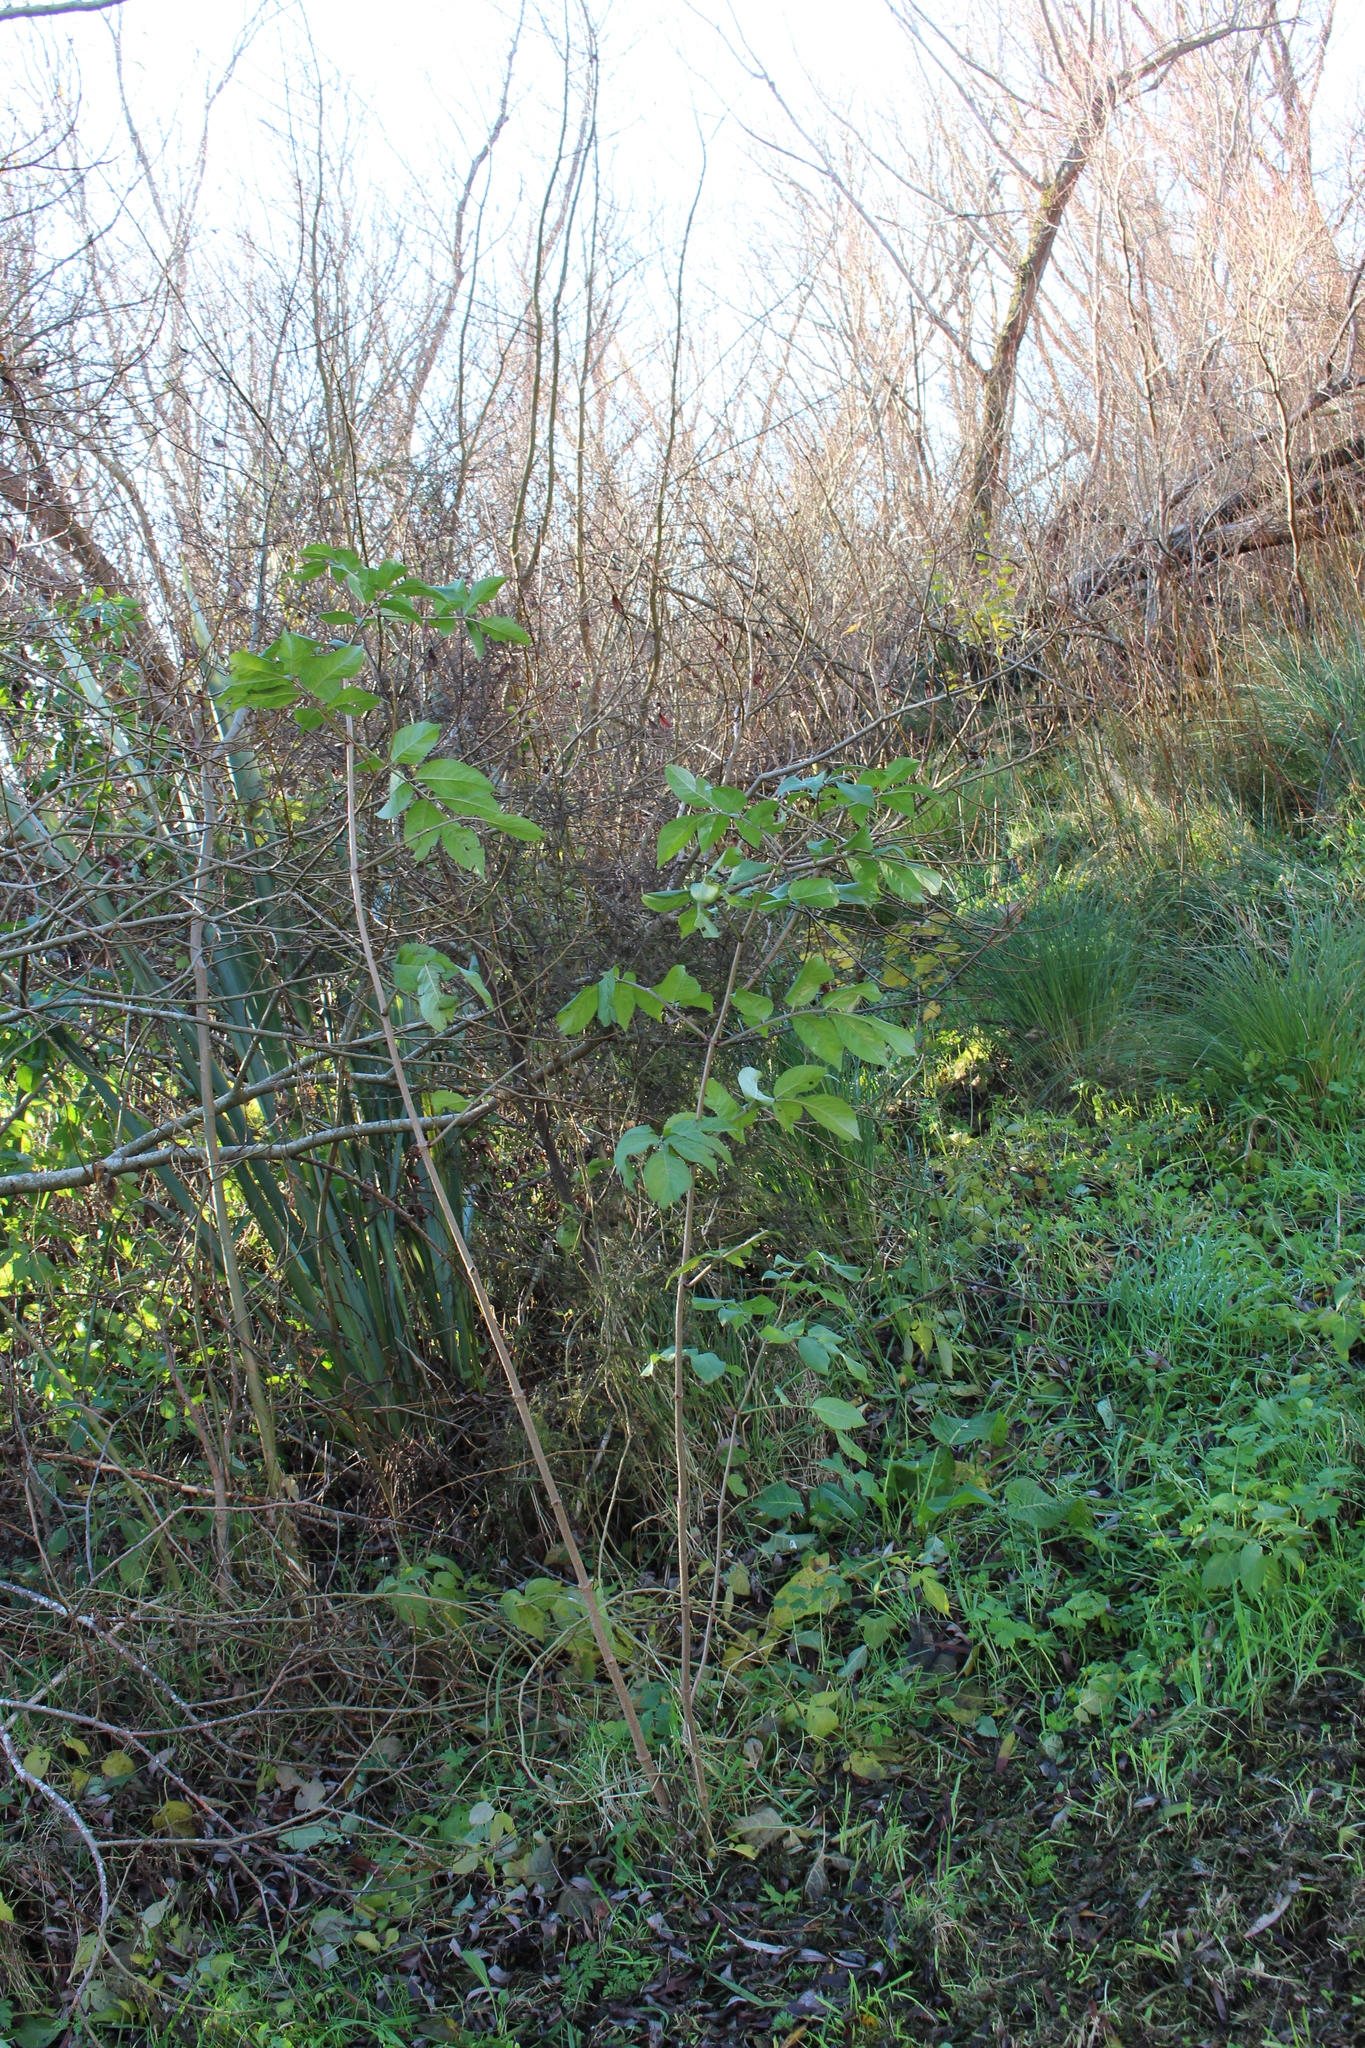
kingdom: Plantae
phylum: Tracheophyta
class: Magnoliopsida
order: Dipsacales
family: Viburnaceae
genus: Sambucus
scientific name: Sambucus nigra
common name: Elder
